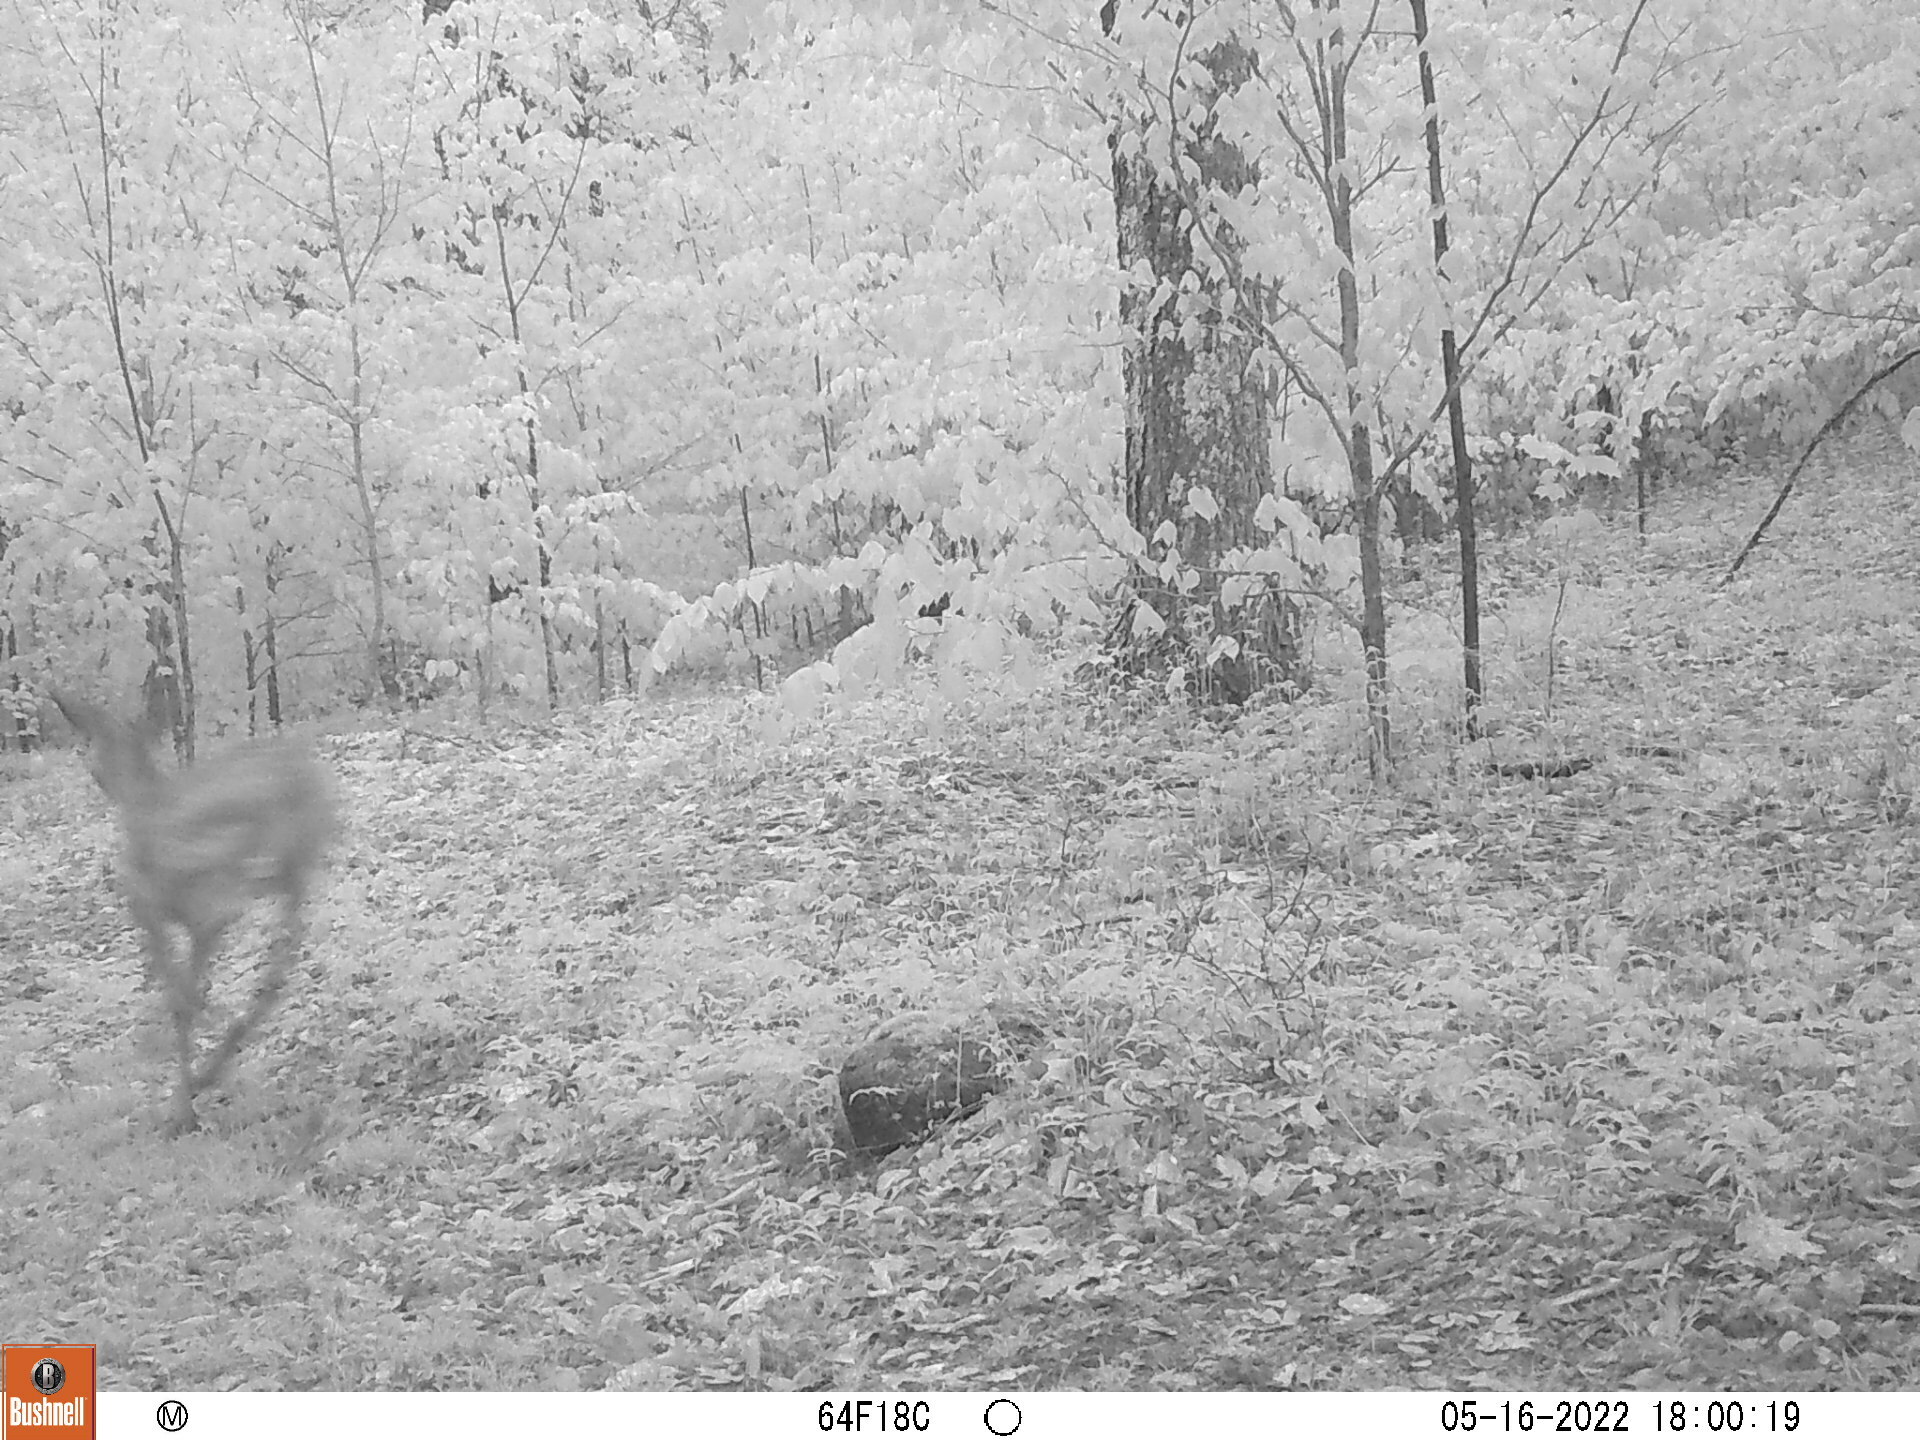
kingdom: Animalia
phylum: Chordata
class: Mammalia
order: Artiodactyla
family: Cervidae
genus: Odocoileus
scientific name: Odocoileus virginianus
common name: White-tailed deer
